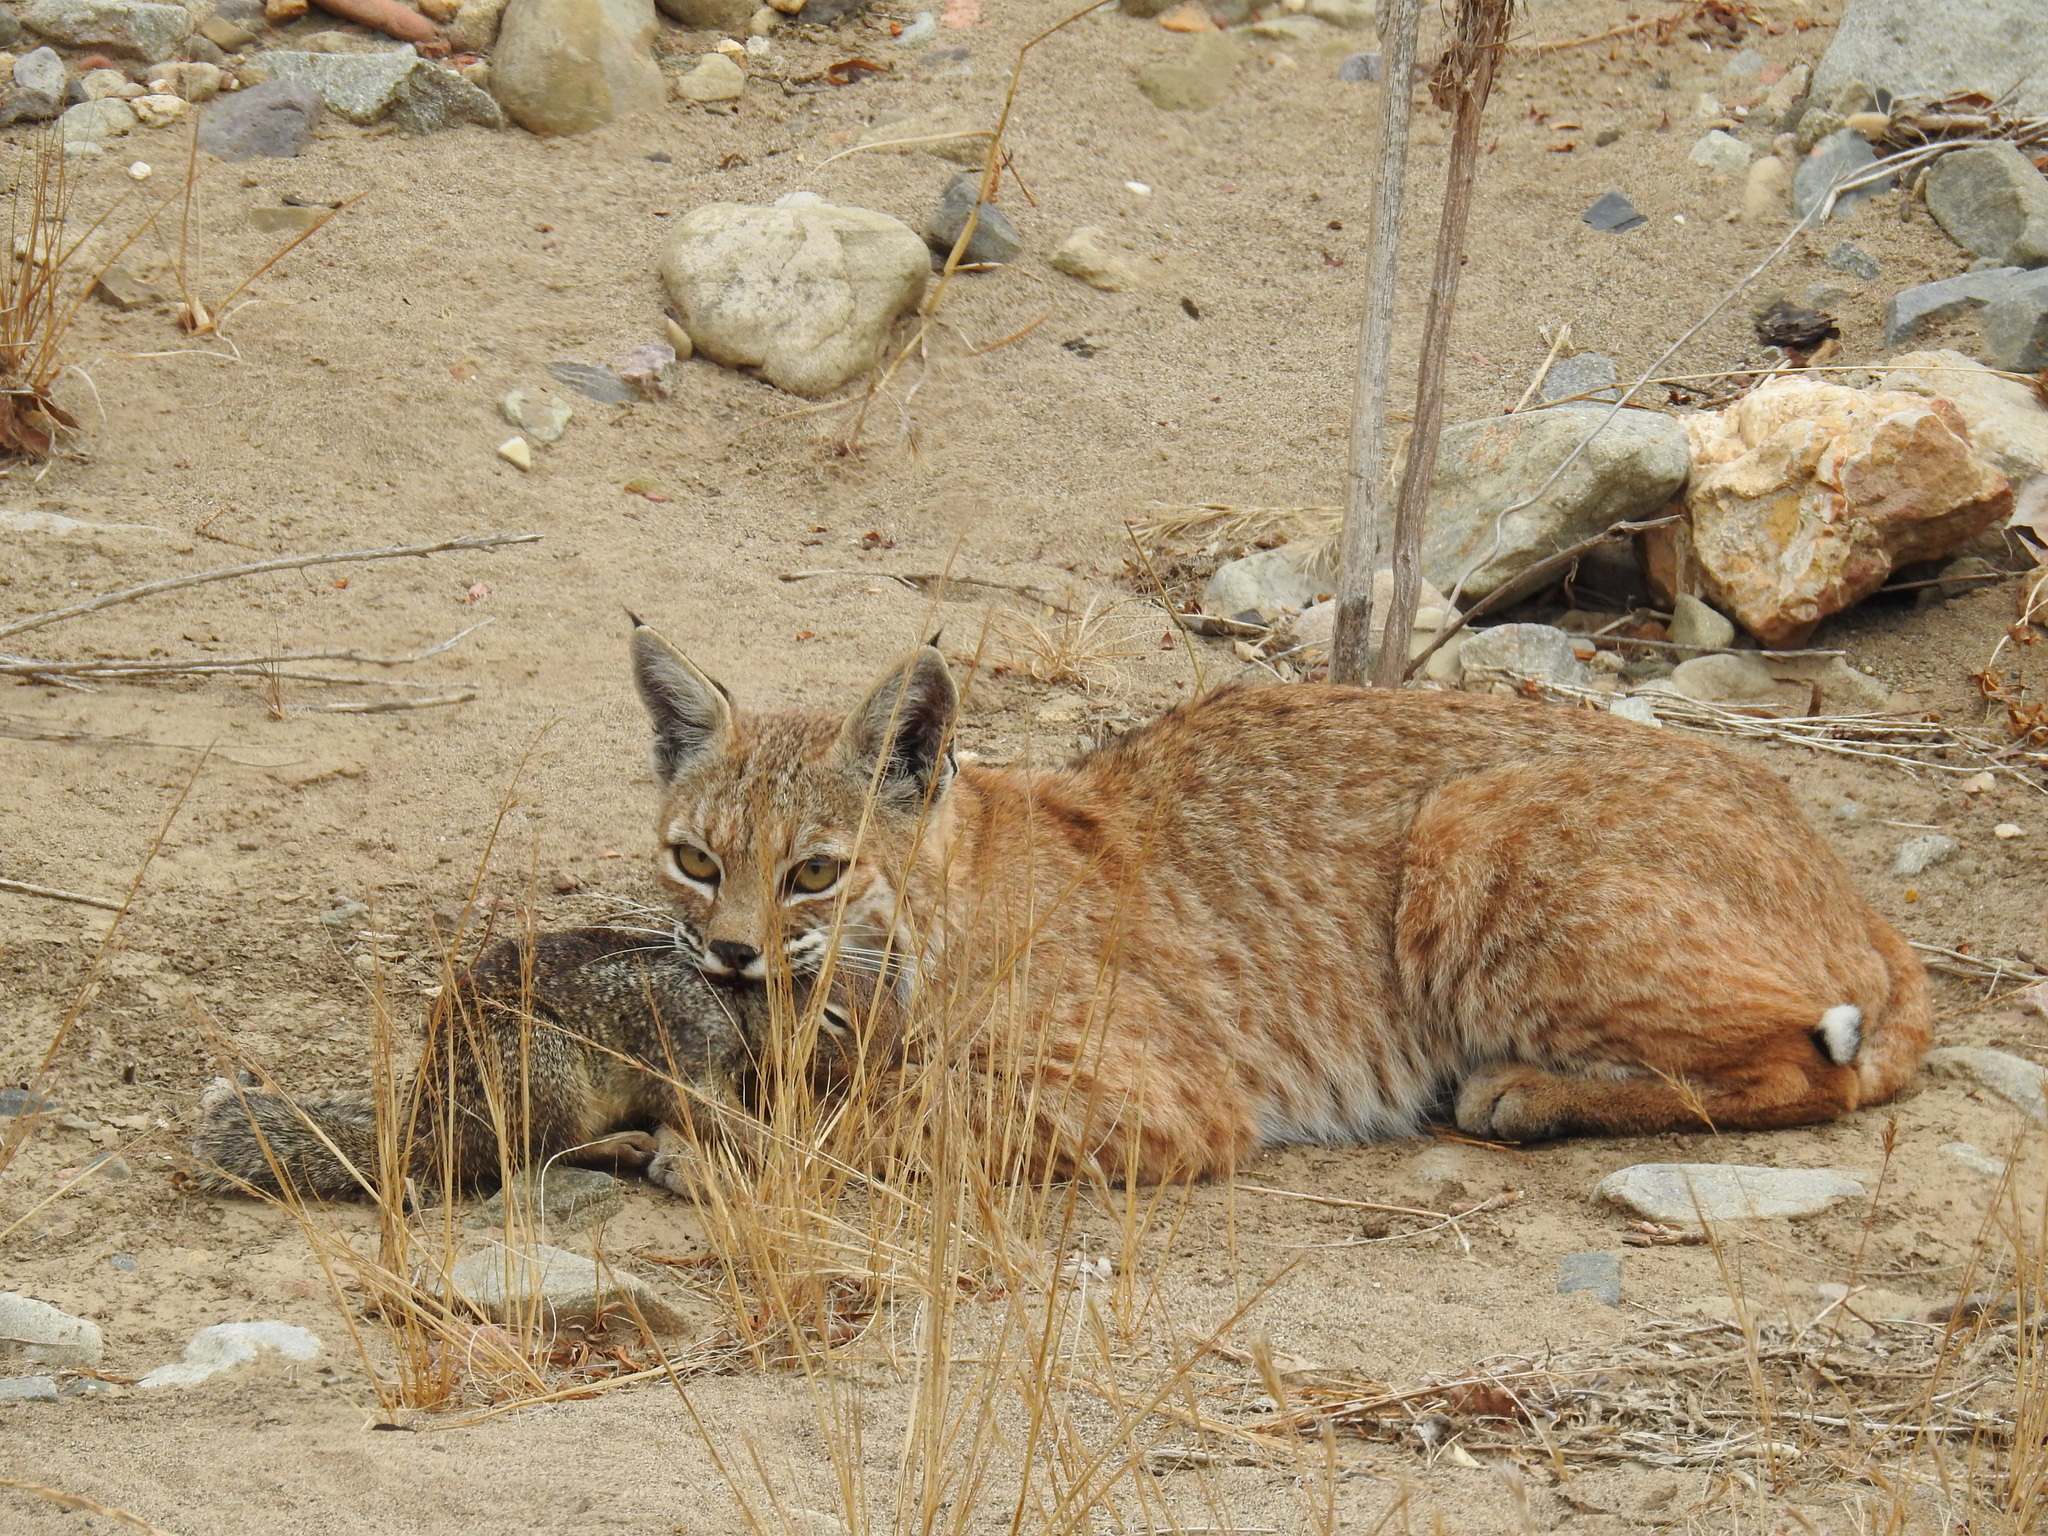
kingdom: Animalia
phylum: Chordata
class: Mammalia
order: Carnivora
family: Felidae
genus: Lynx
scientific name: Lynx rufus
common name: Bobcat
